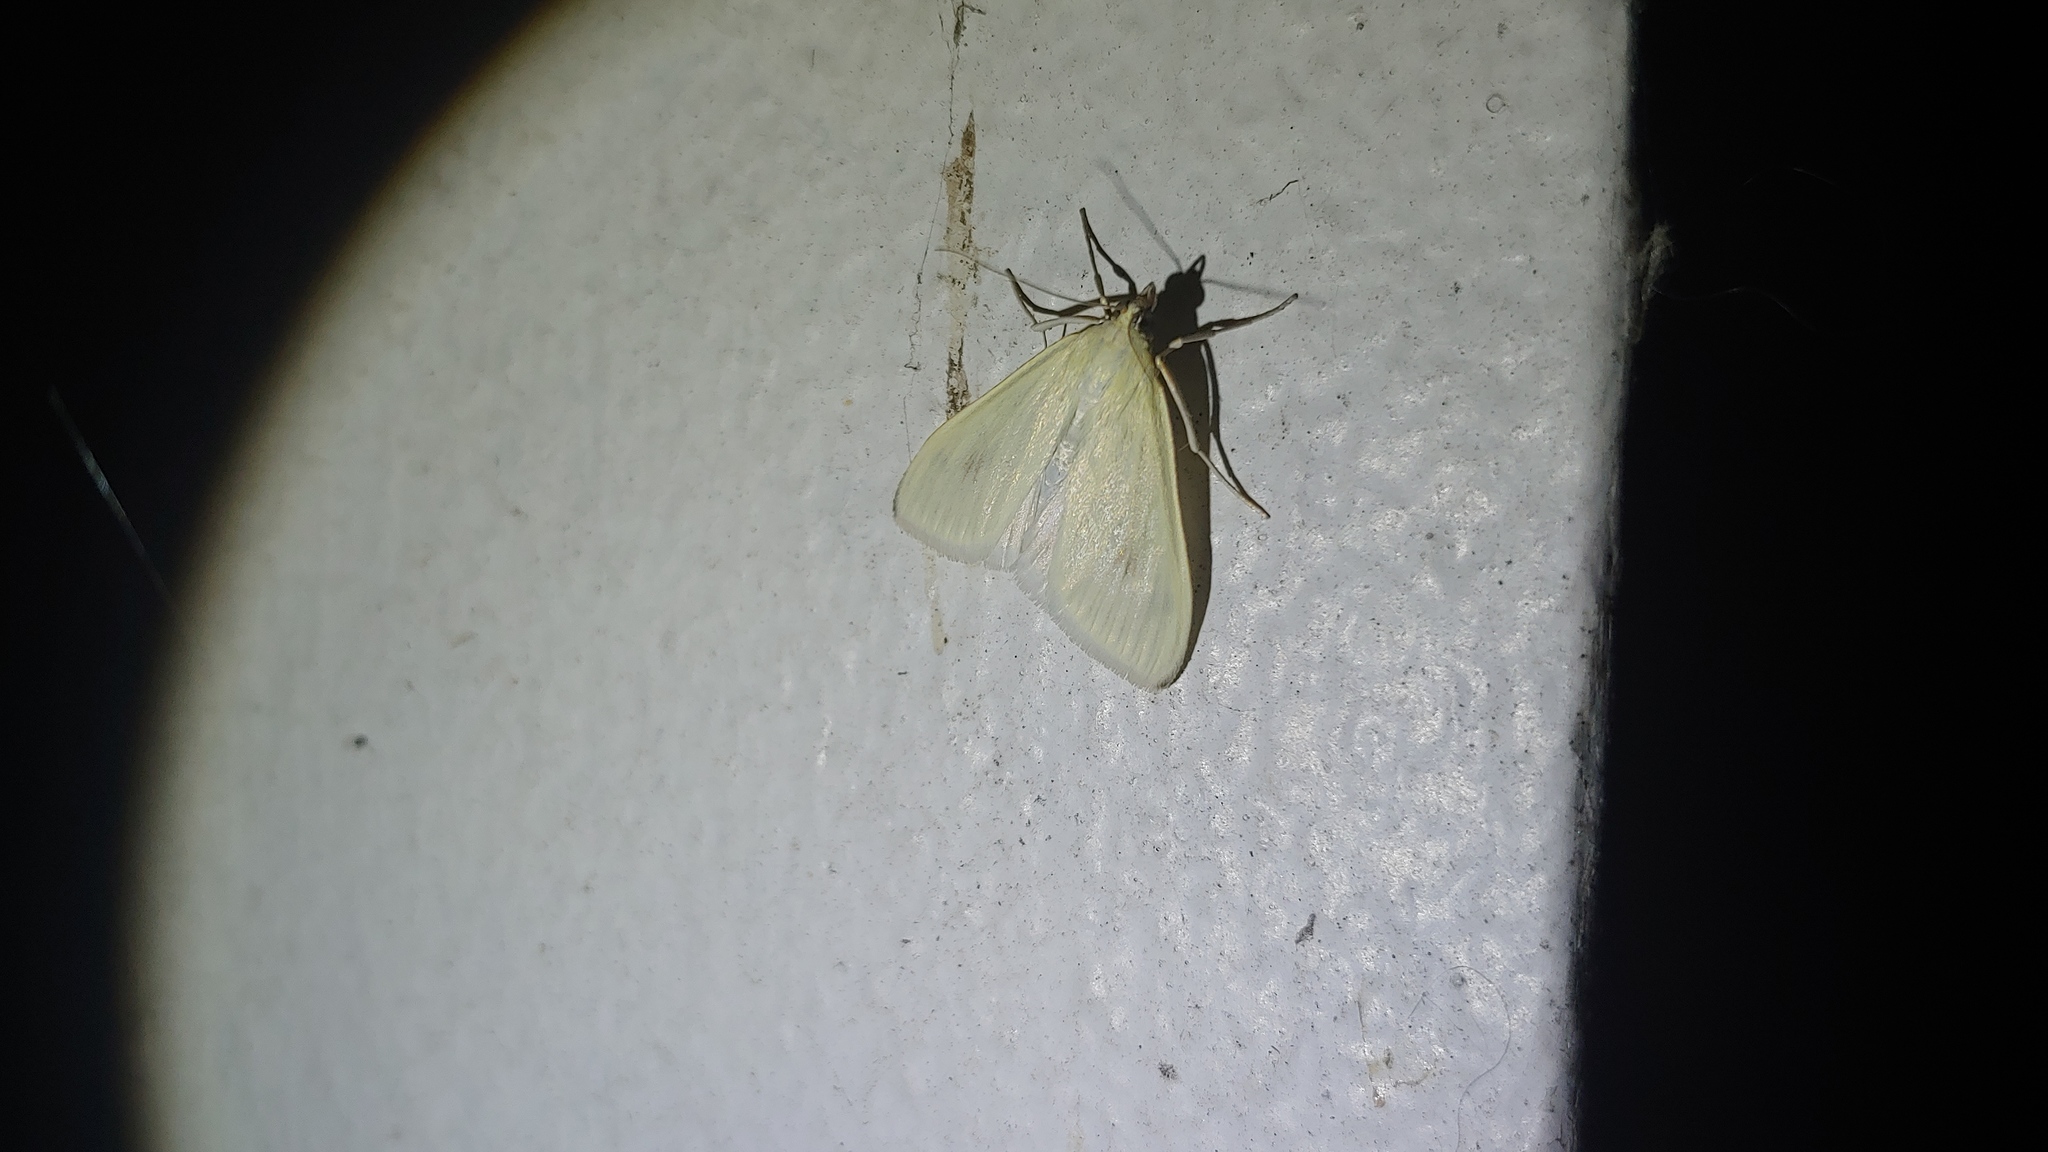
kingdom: Animalia
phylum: Arthropoda
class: Insecta
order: Lepidoptera
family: Crambidae
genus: Sitochroa
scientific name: Sitochroa palealis
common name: Greenish-yellow sitochroa moth
